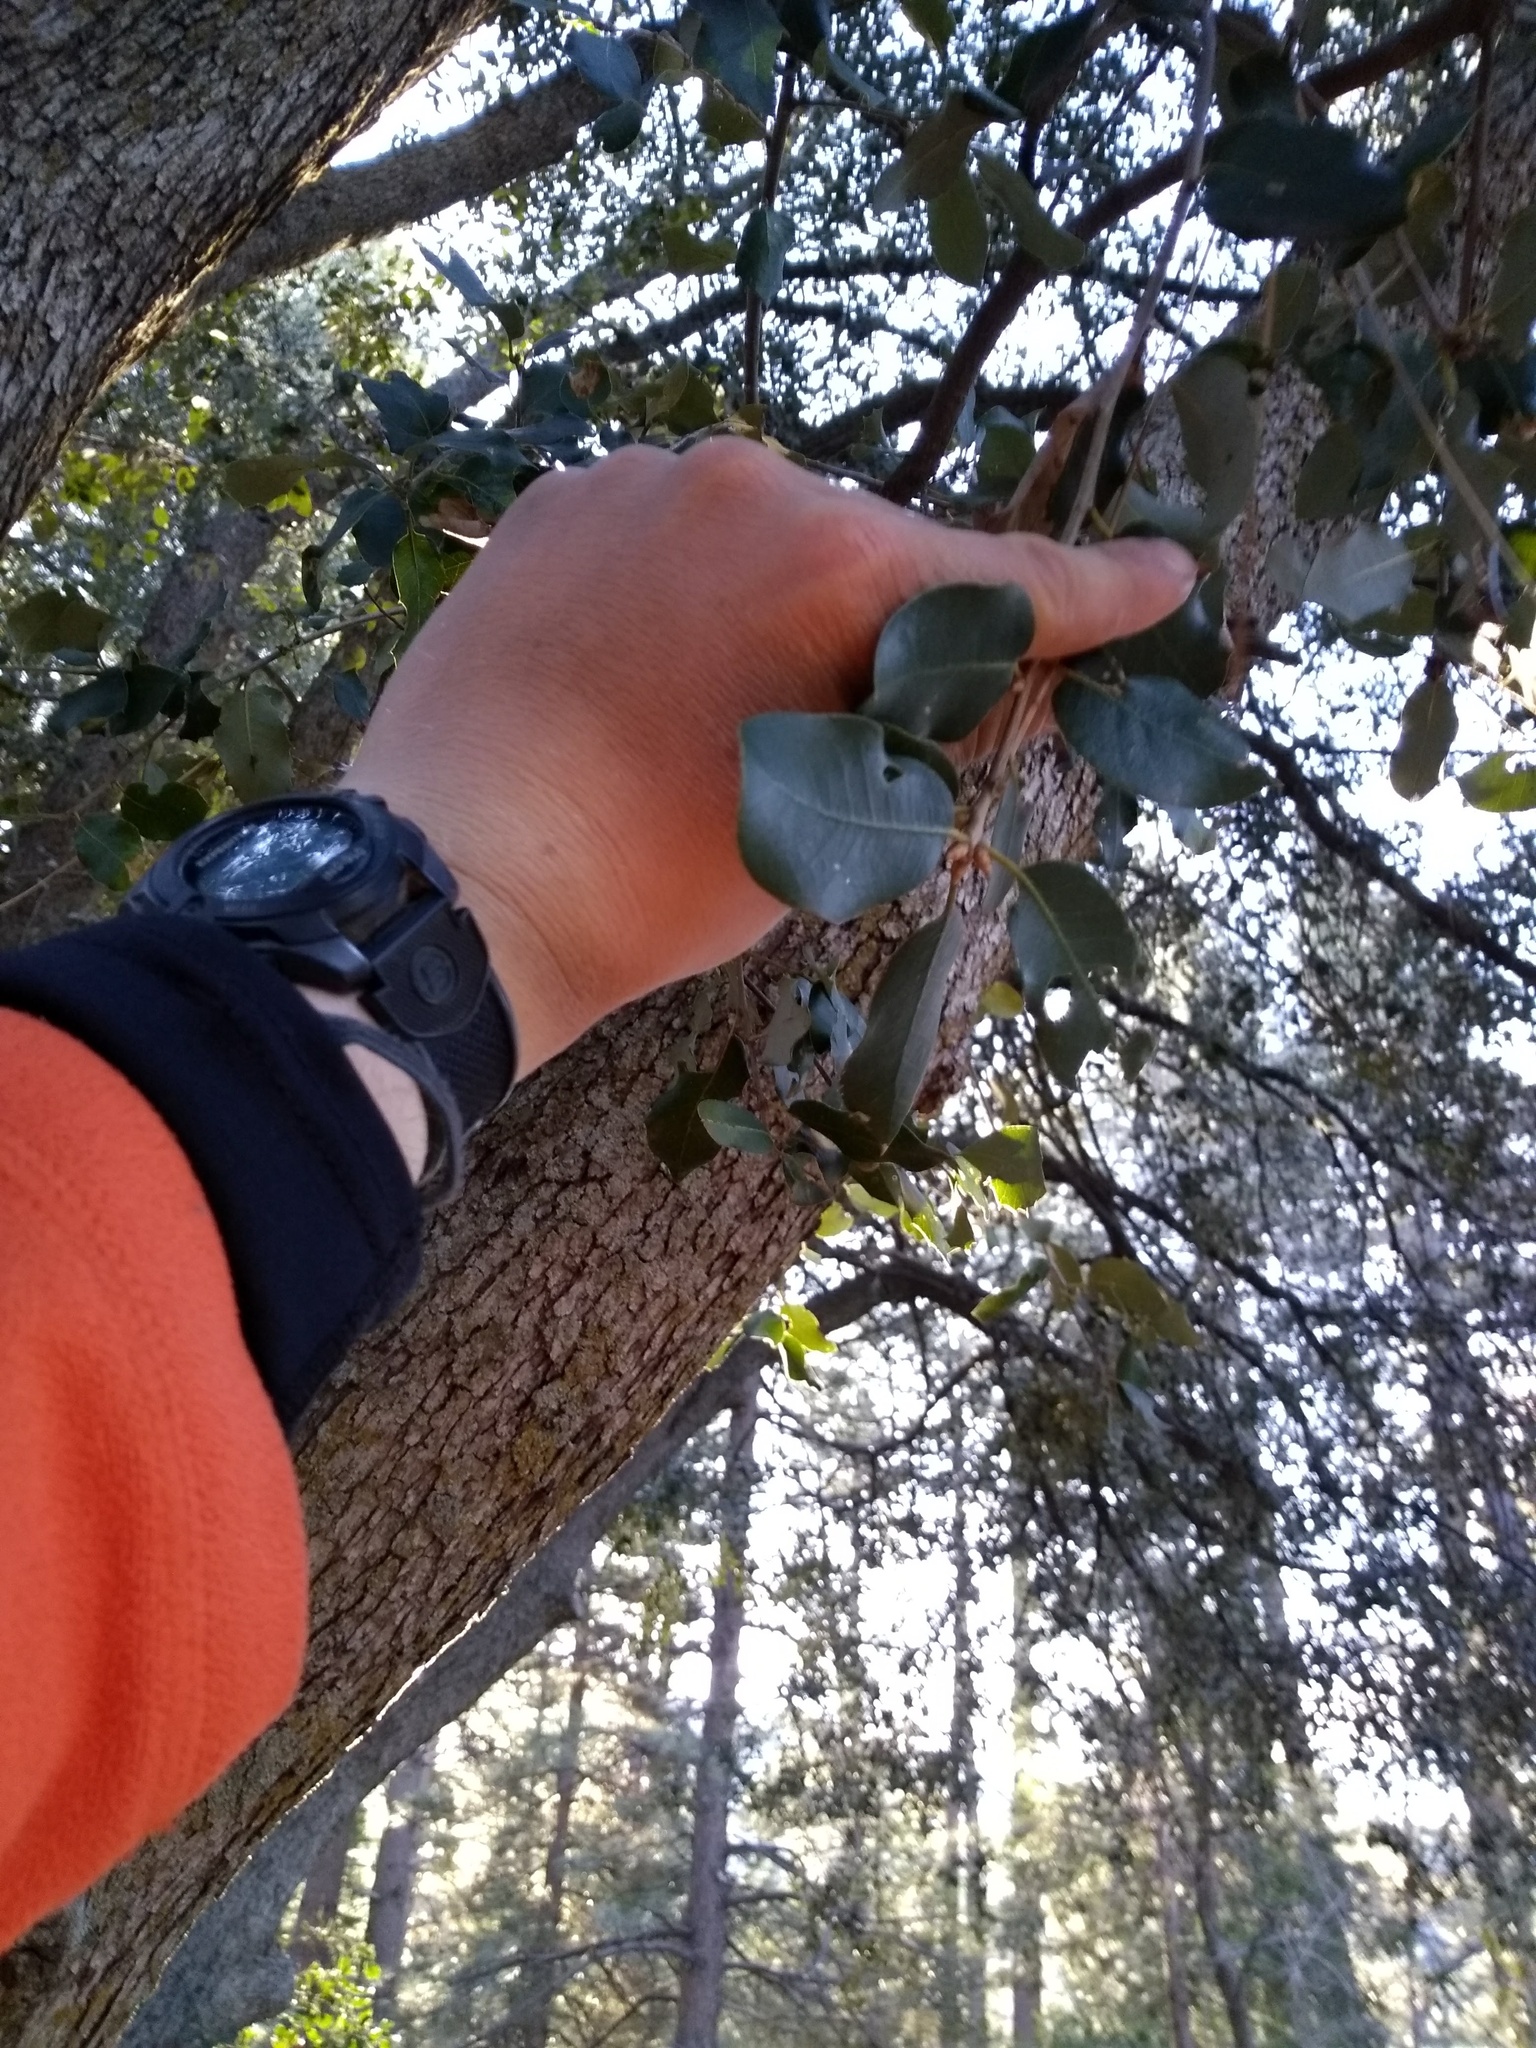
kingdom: Plantae
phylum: Tracheophyta
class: Magnoliopsida
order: Fagales
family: Fagaceae
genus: Quercus
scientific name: Quercus chrysolepis
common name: Canyon live oak
